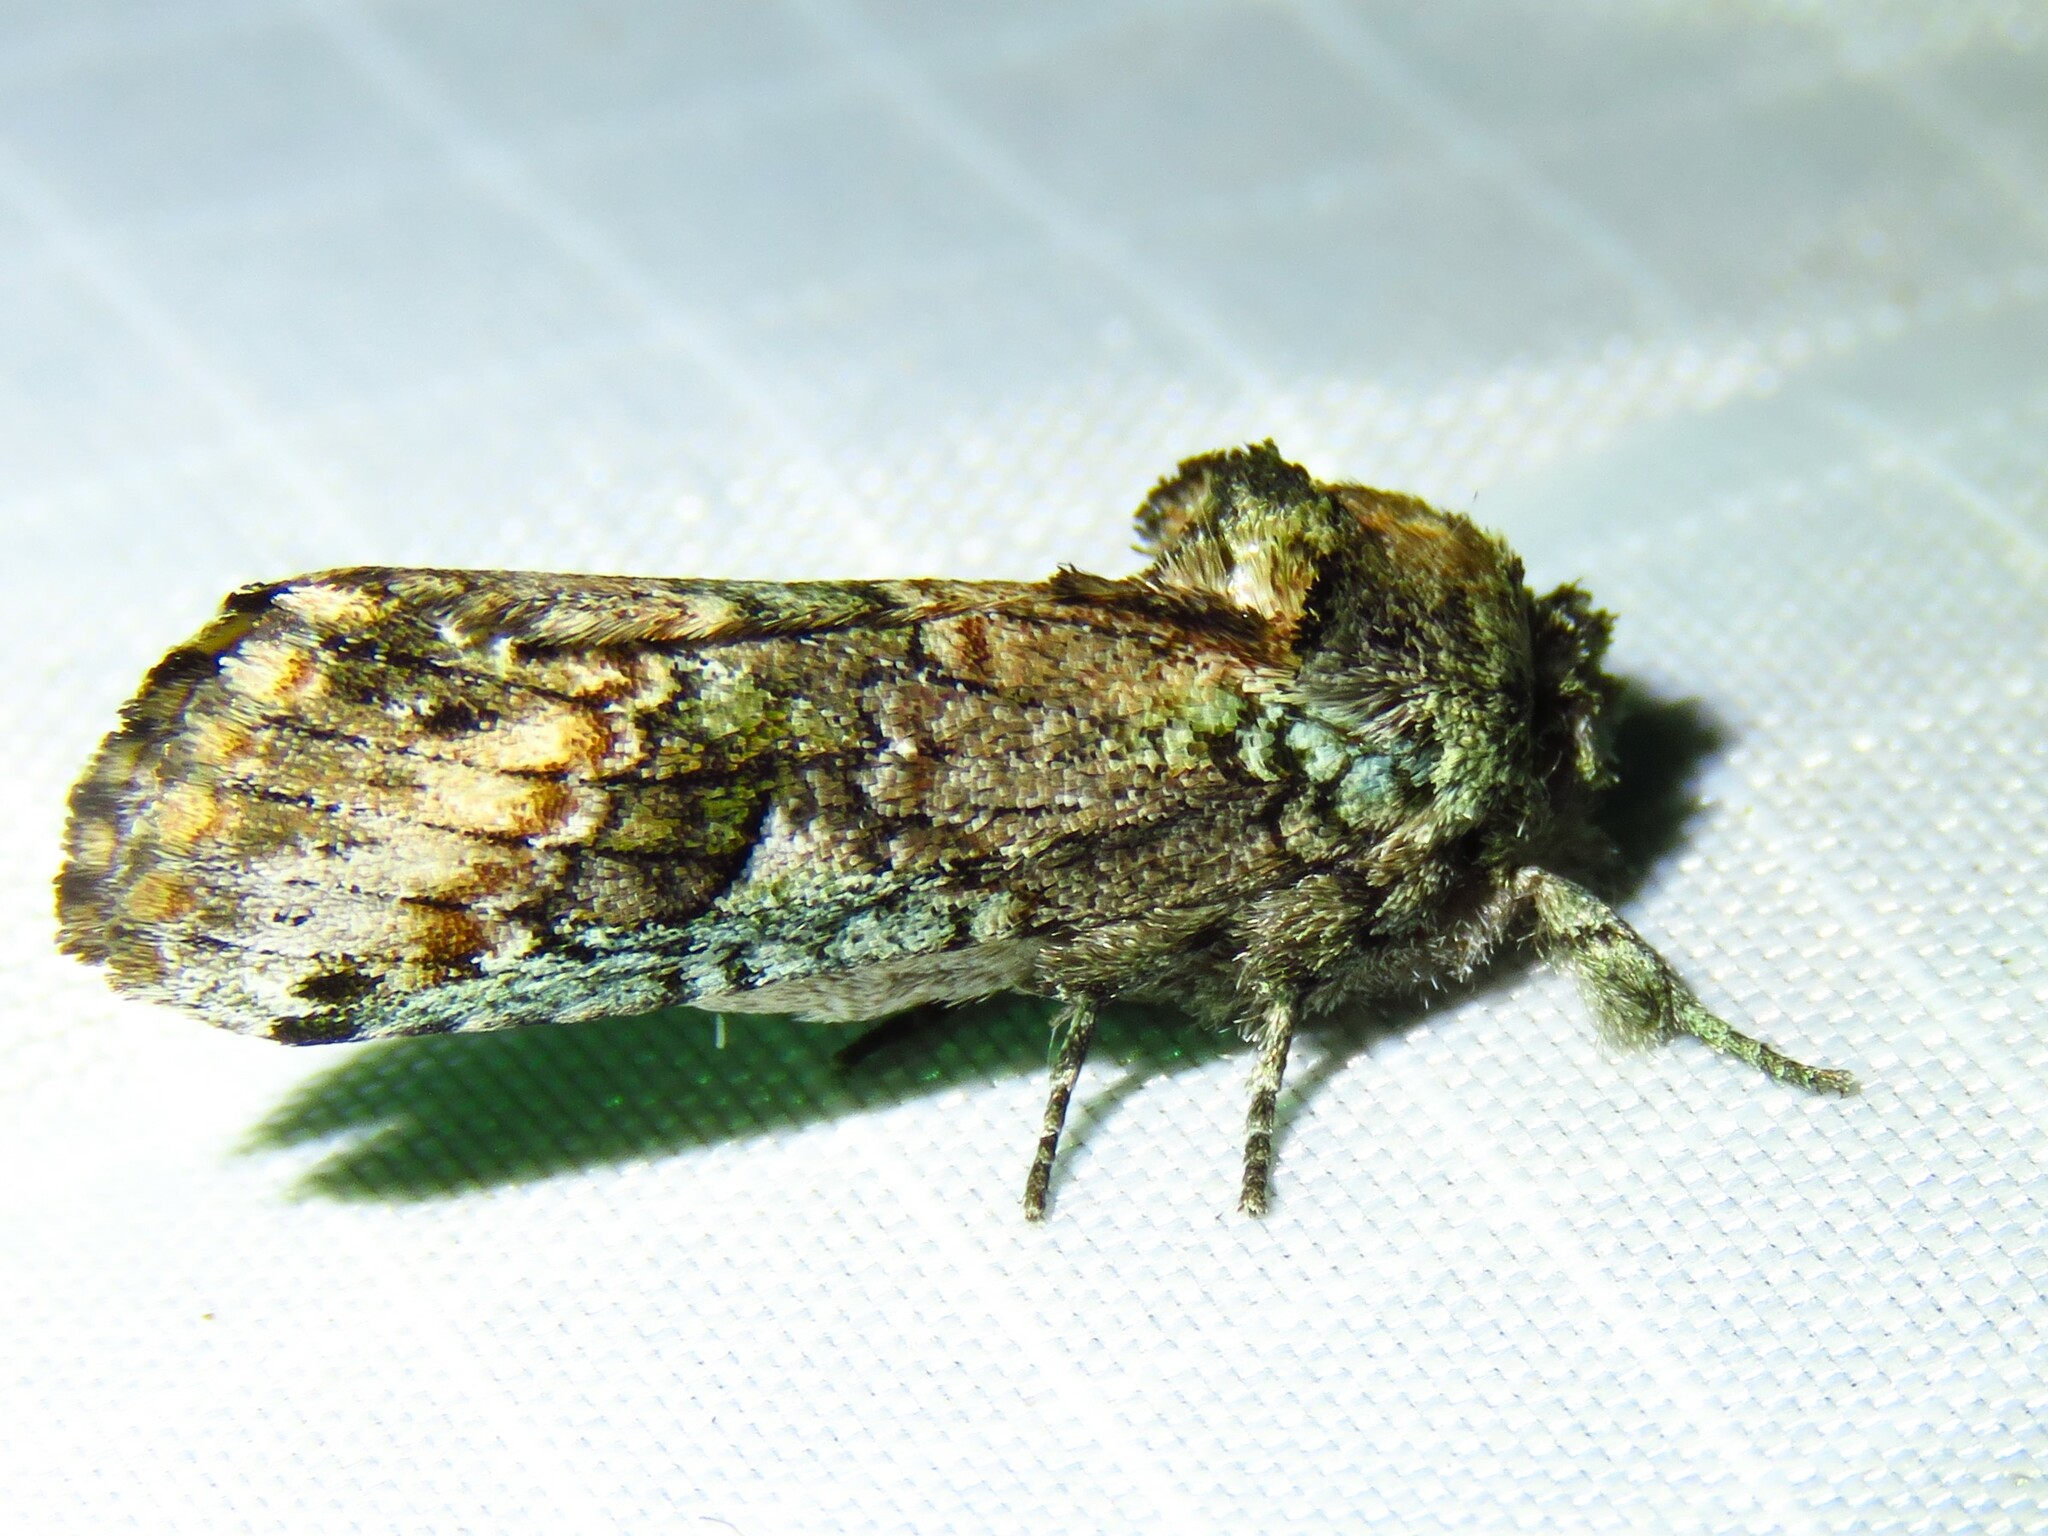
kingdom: Animalia
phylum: Arthropoda
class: Insecta
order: Lepidoptera
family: Notodontidae
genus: Schizura
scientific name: Schizura
